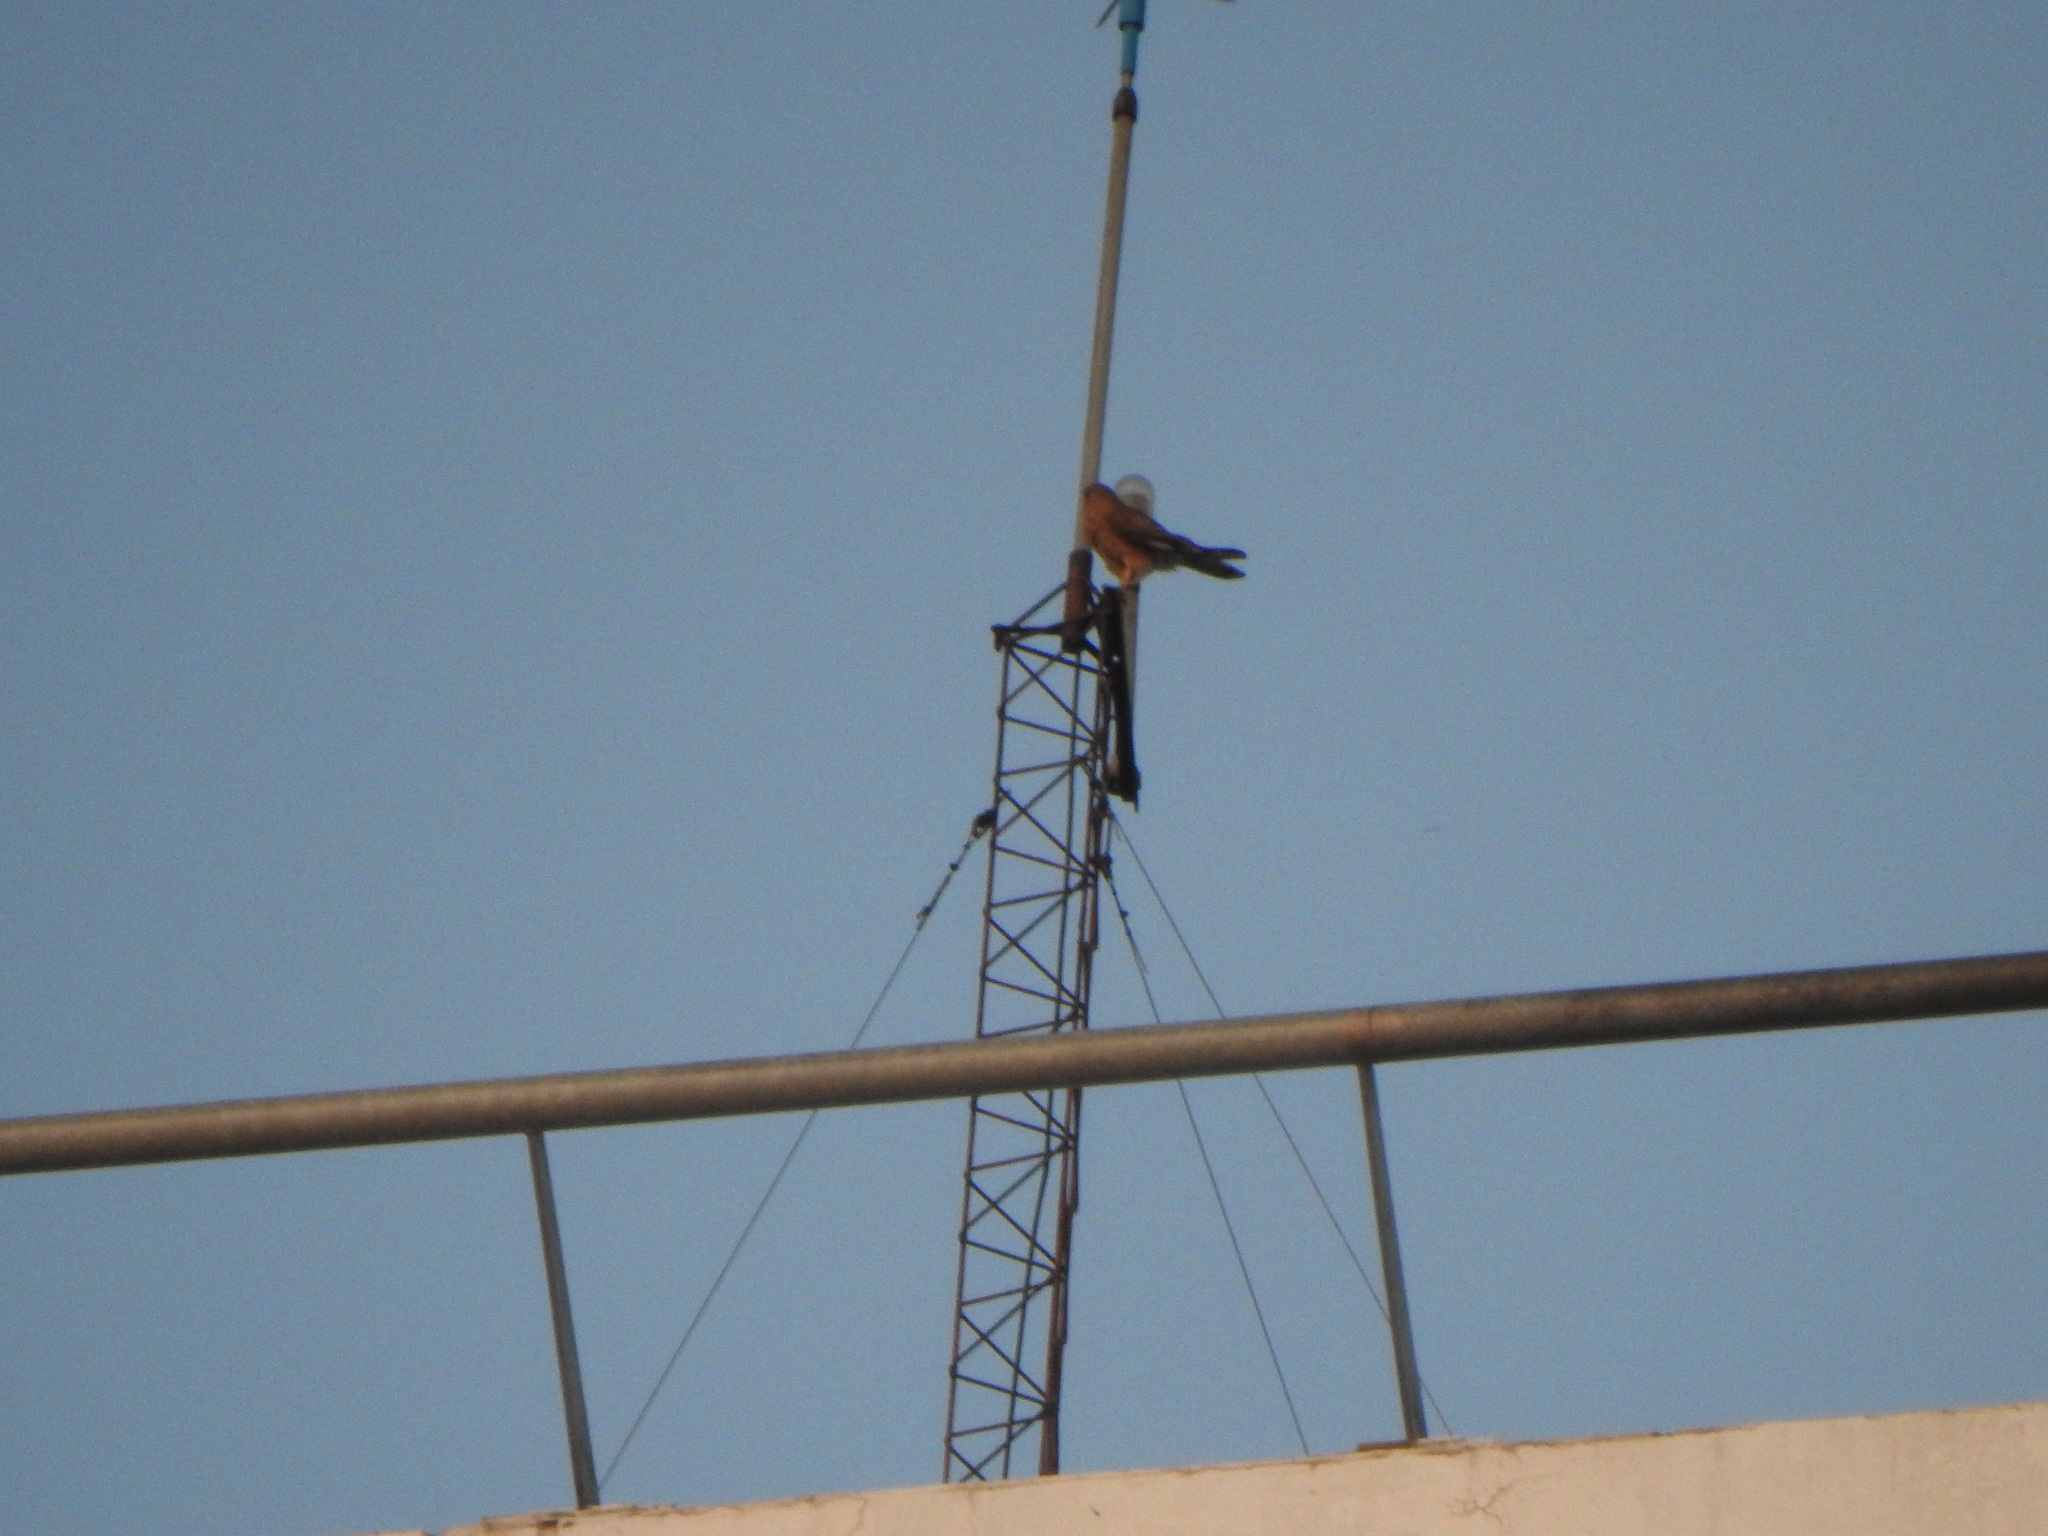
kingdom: Animalia
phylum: Chordata
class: Aves
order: Accipitriformes
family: Accipitridae
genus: Parabuteo
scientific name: Parabuteo unicinctus
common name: Harris's hawk
